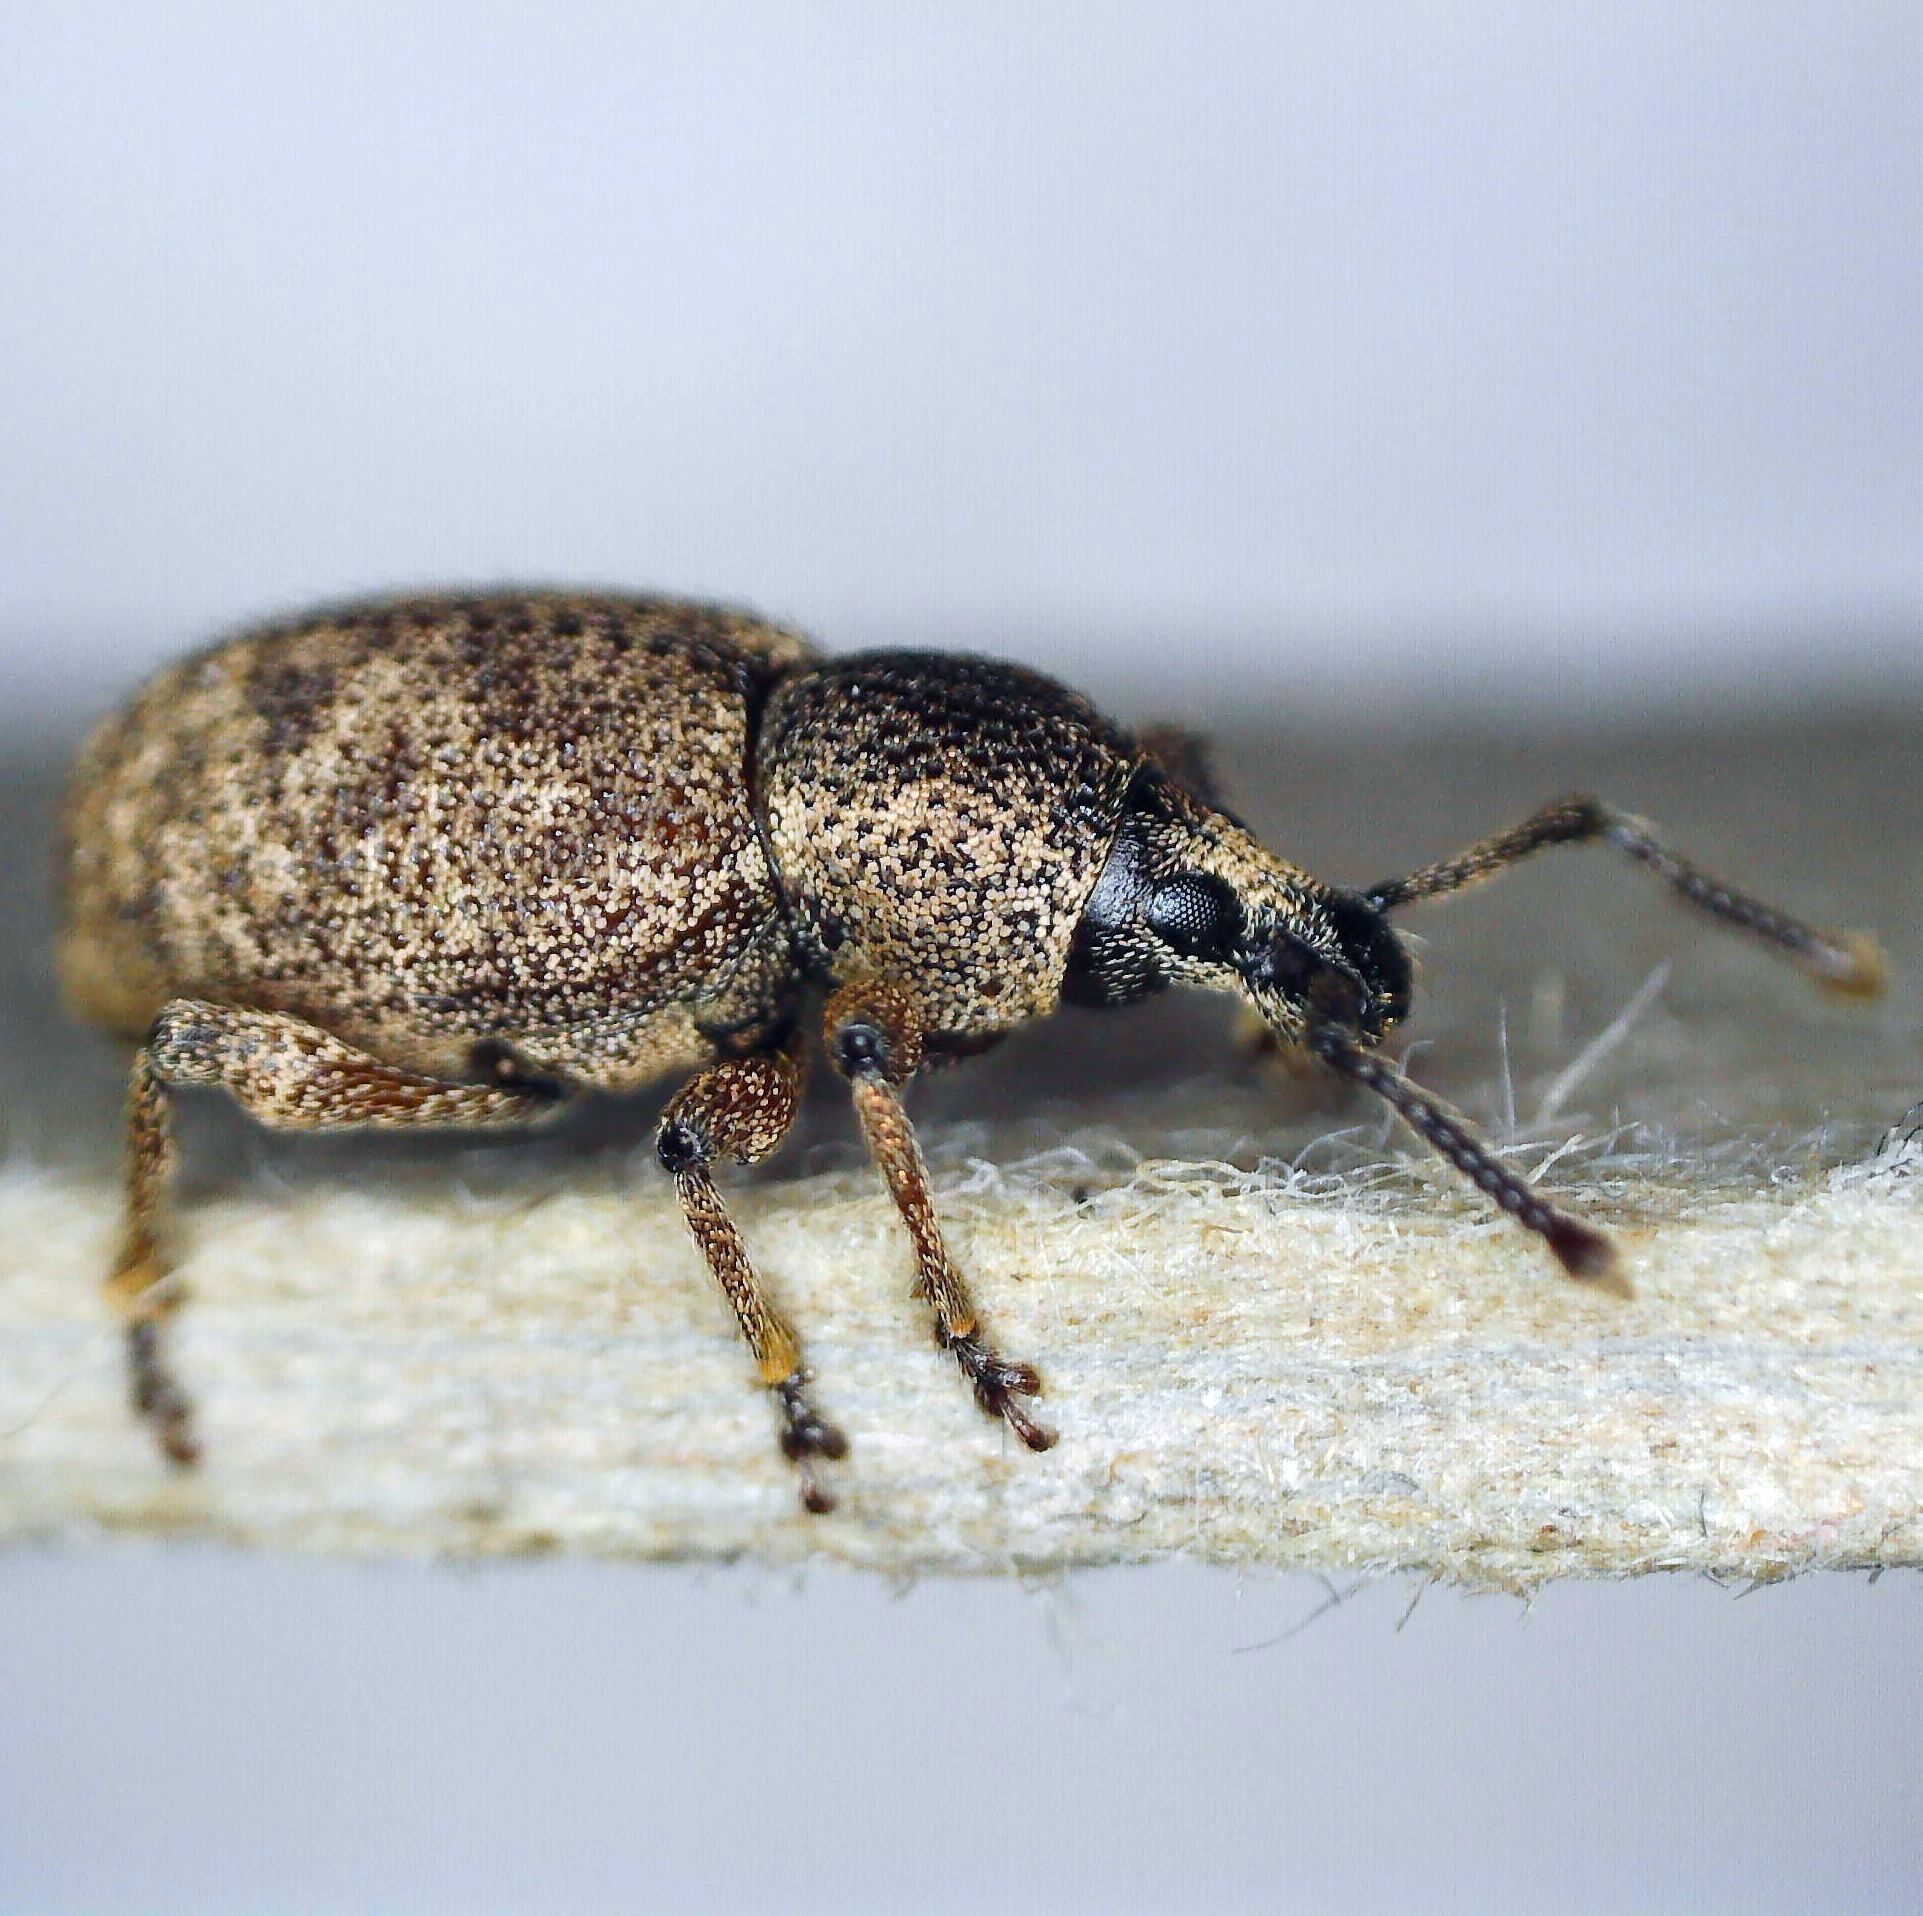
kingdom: Animalia
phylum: Arthropoda
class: Insecta
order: Coleoptera
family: Curculionidae
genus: Otiorhynchus
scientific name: Otiorhynchus singularis
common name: Clay-coloured weevil
